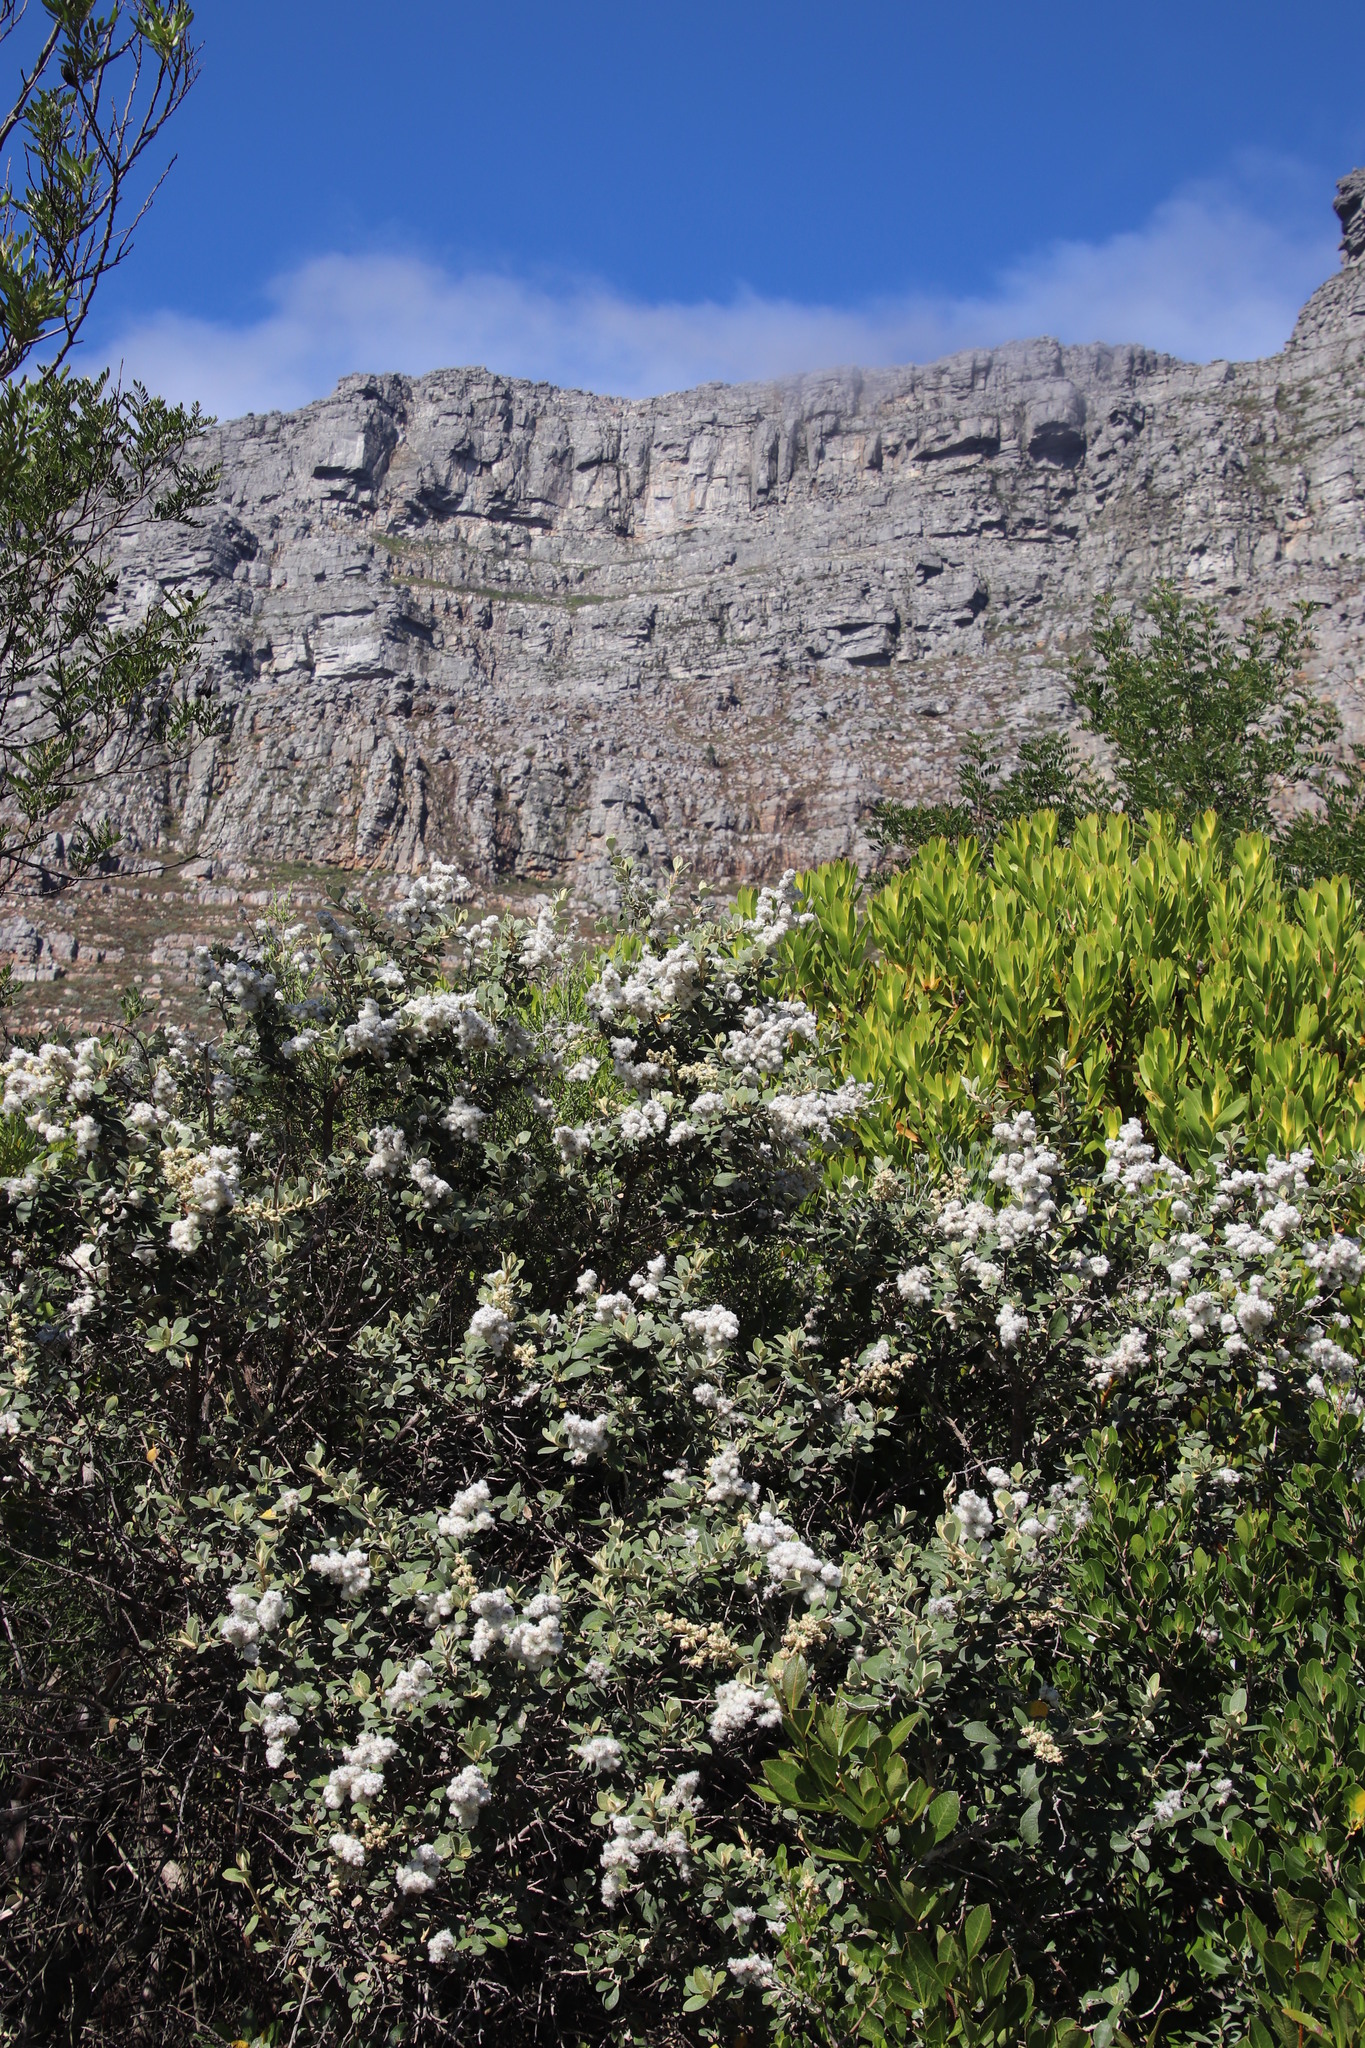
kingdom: Plantae
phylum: Tracheophyta
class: Magnoliopsida
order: Asterales
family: Asteraceae
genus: Tarchonanthus
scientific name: Tarchonanthus littoralis
